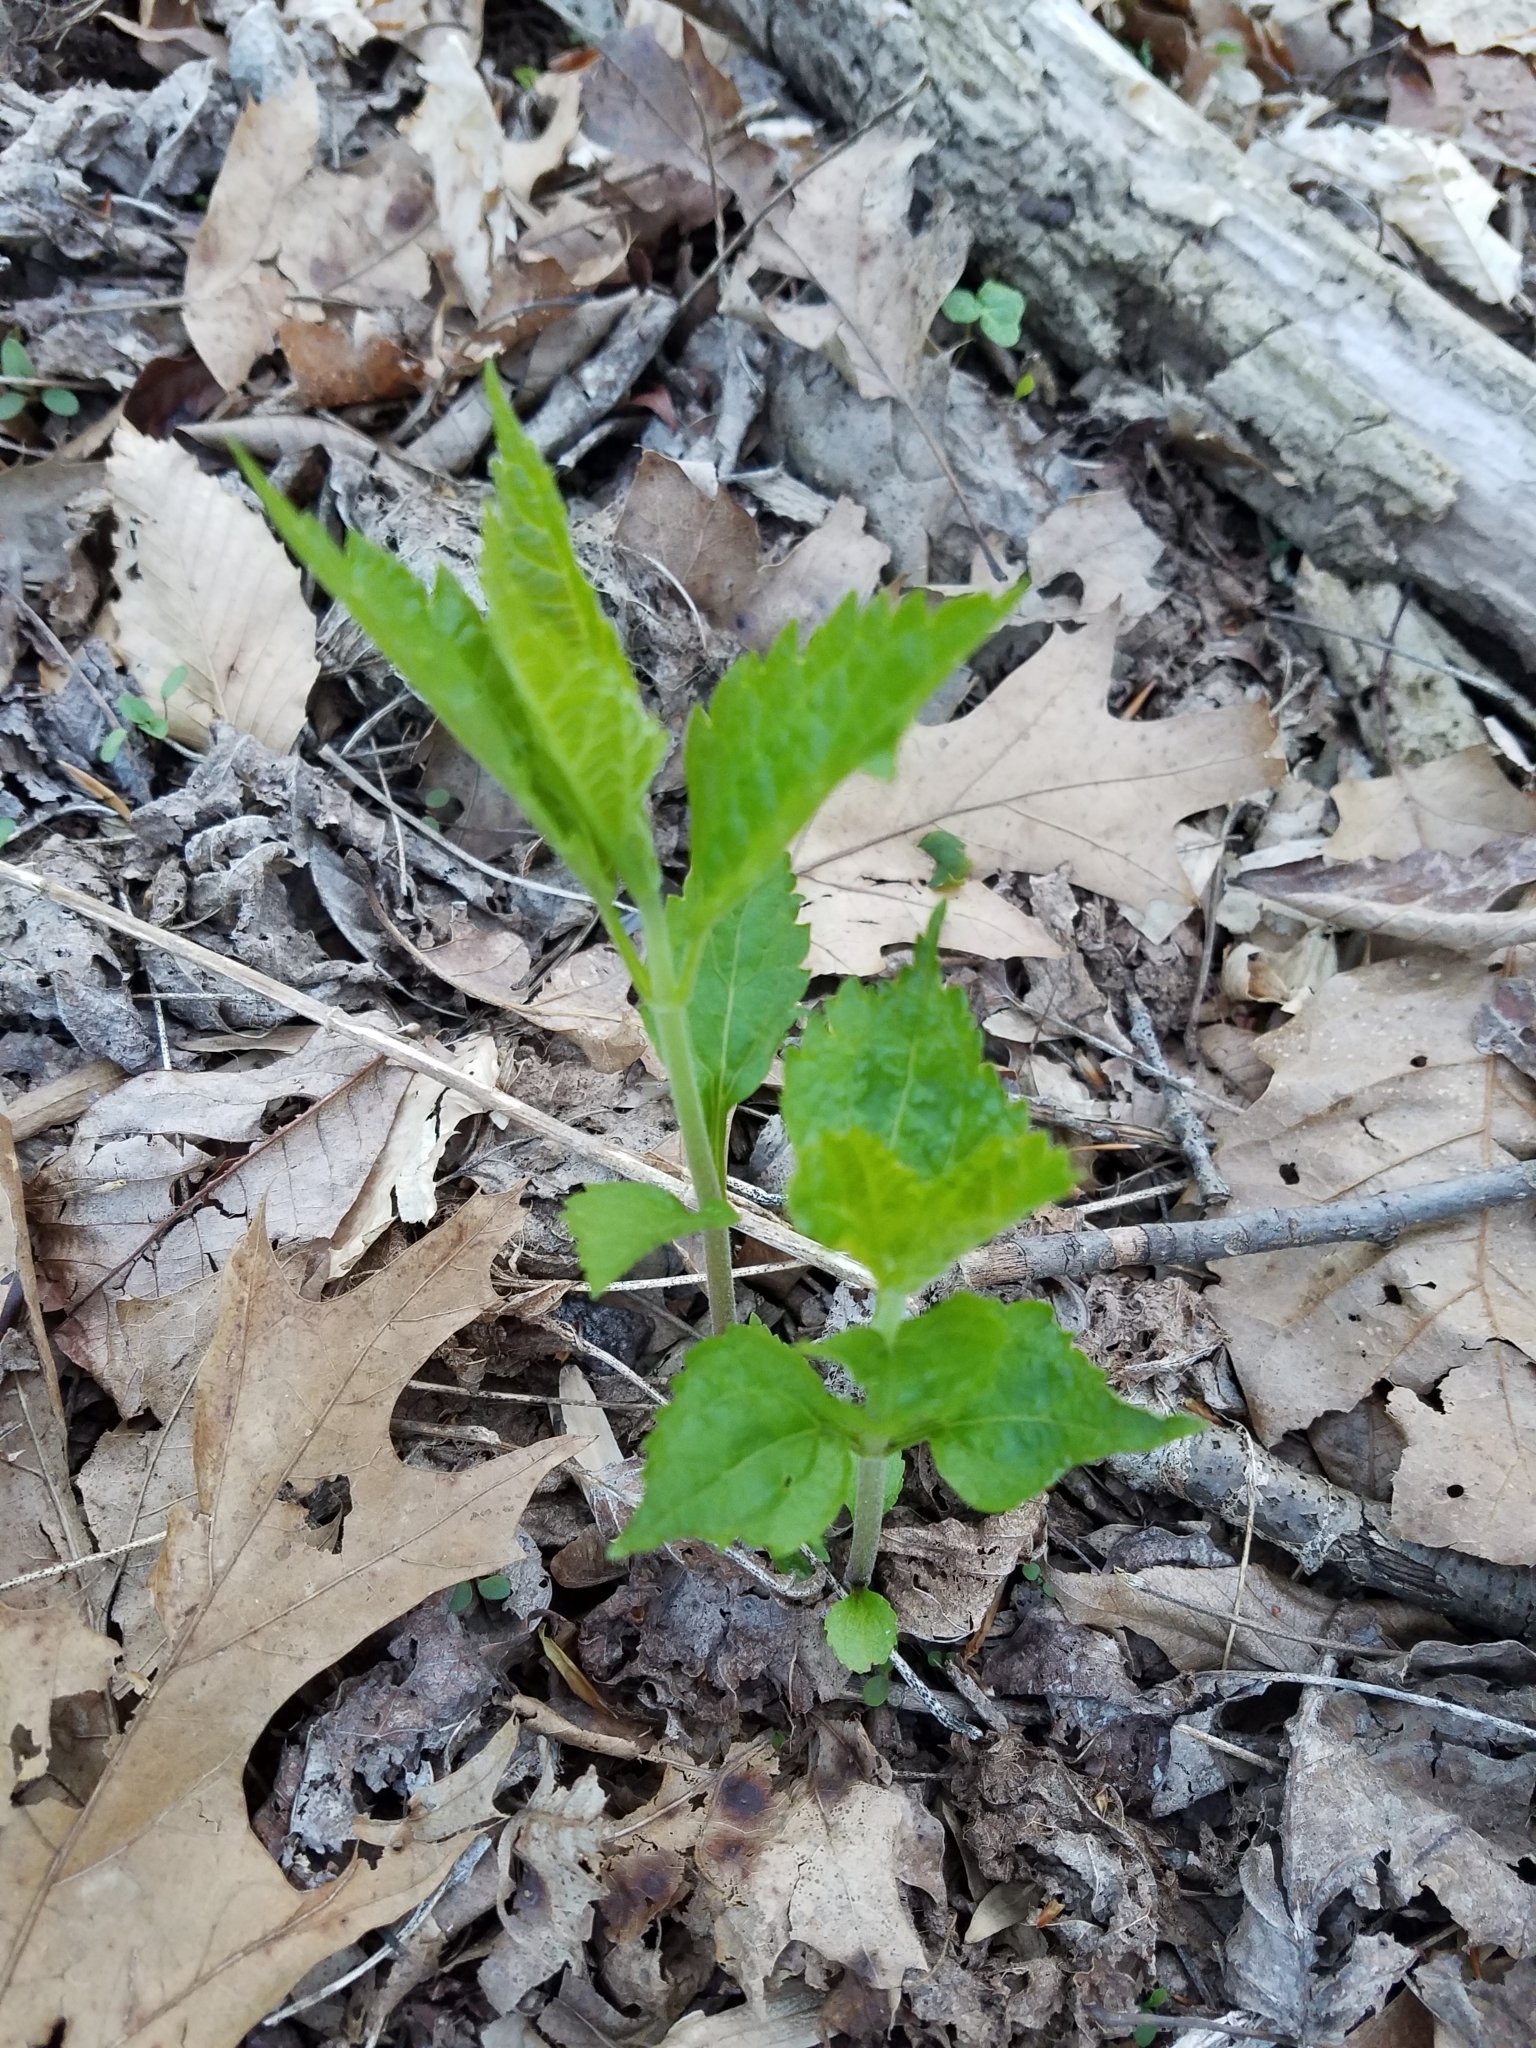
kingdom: Plantae
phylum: Tracheophyta
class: Magnoliopsida
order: Asterales
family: Asteraceae
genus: Ageratina
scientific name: Ageratina altissima
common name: White snakeroot
